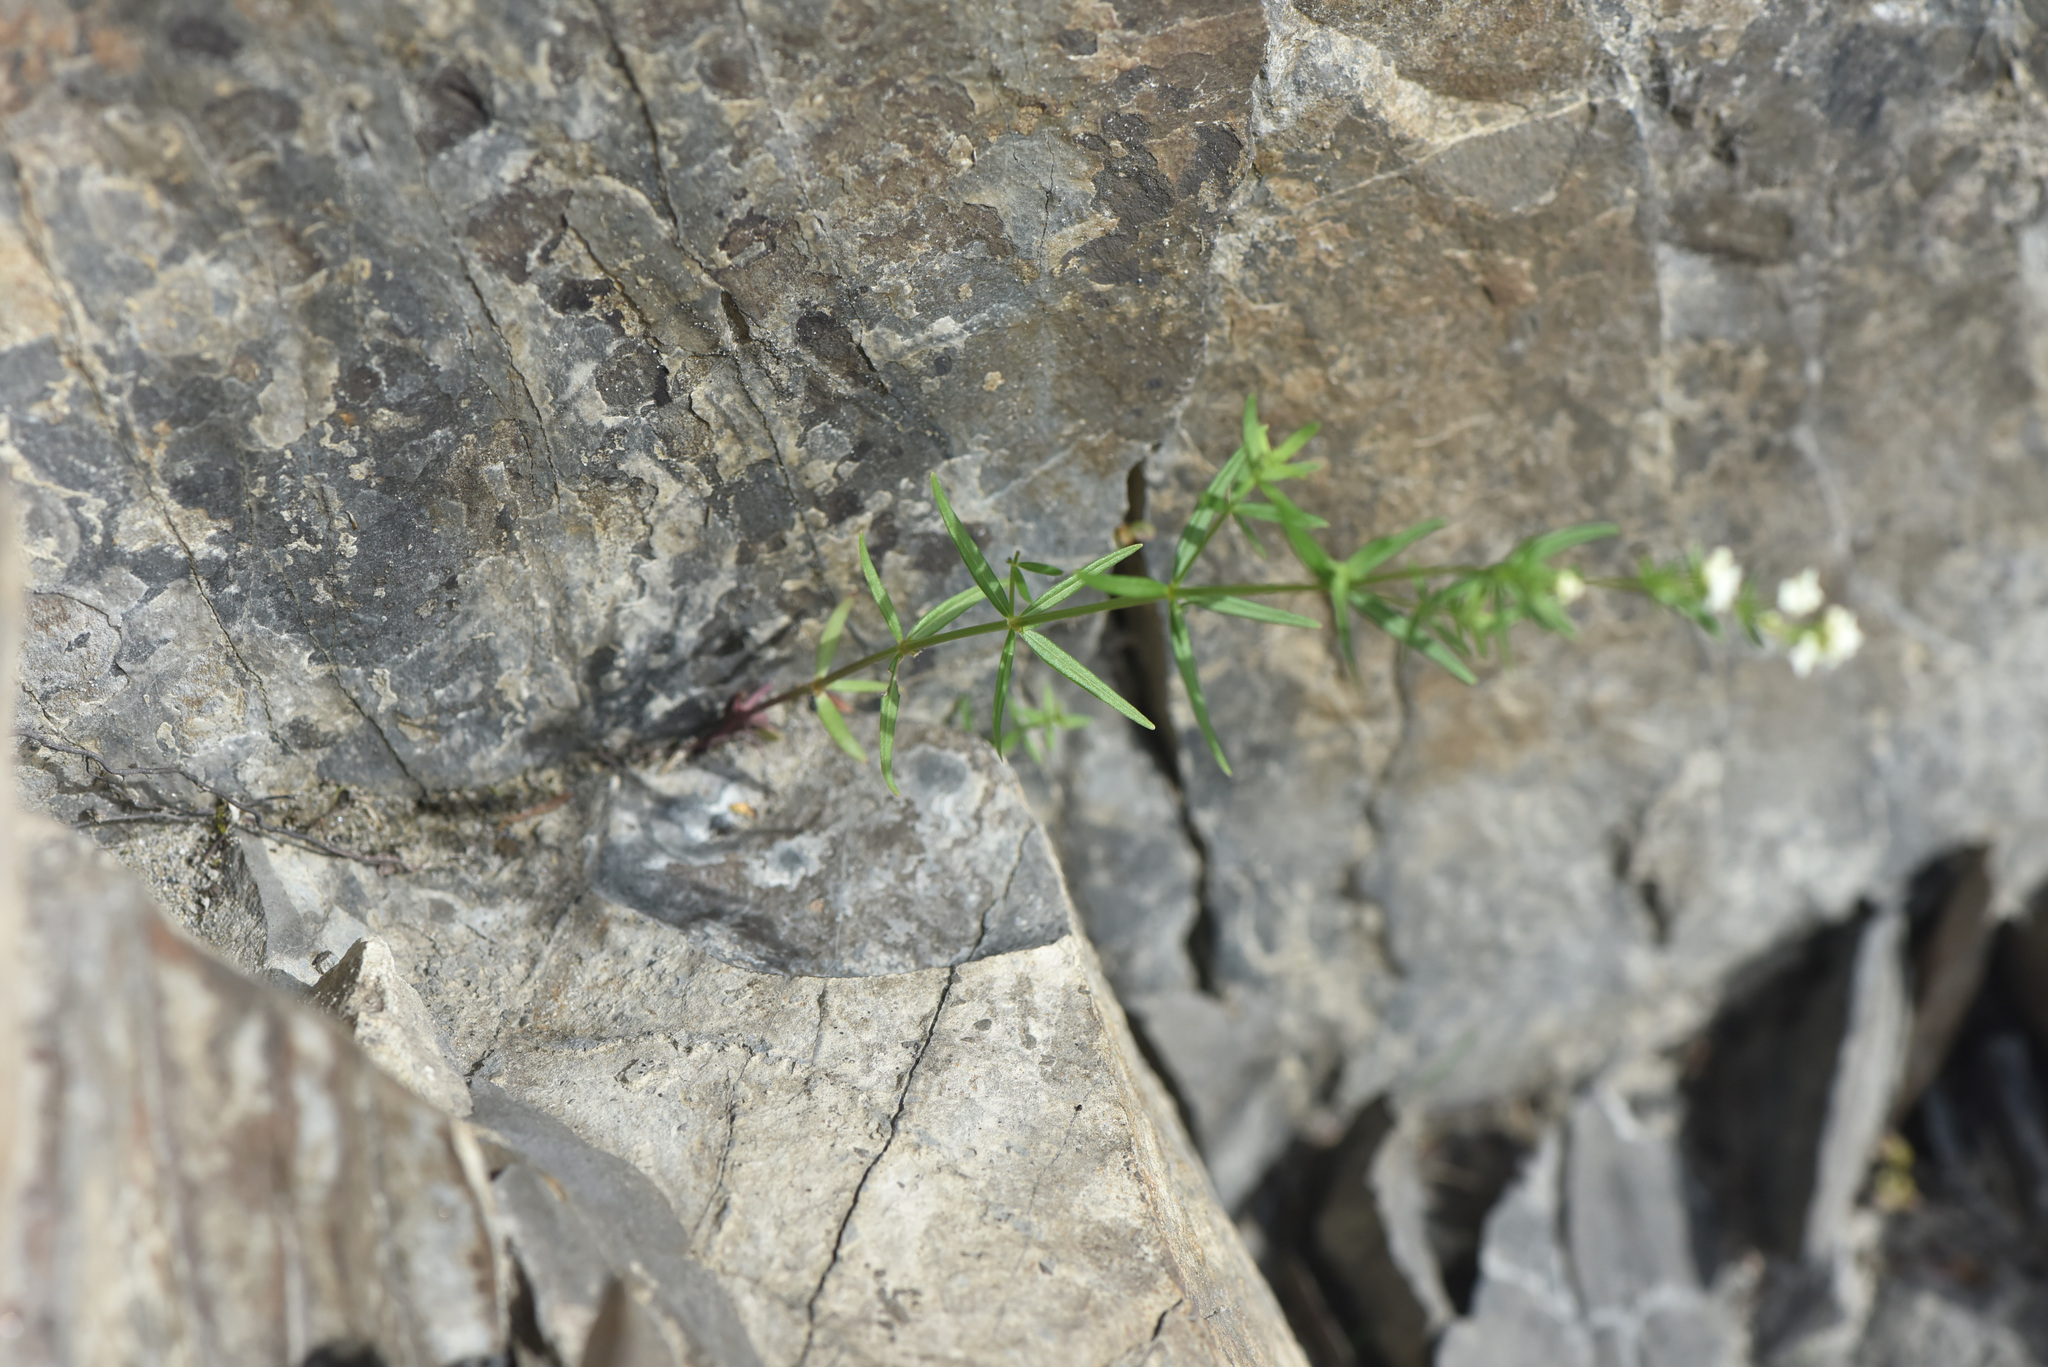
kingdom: Plantae
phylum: Tracheophyta
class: Magnoliopsida
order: Gentianales
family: Rubiaceae
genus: Galium
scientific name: Galium boreale
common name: Northern bedstraw
